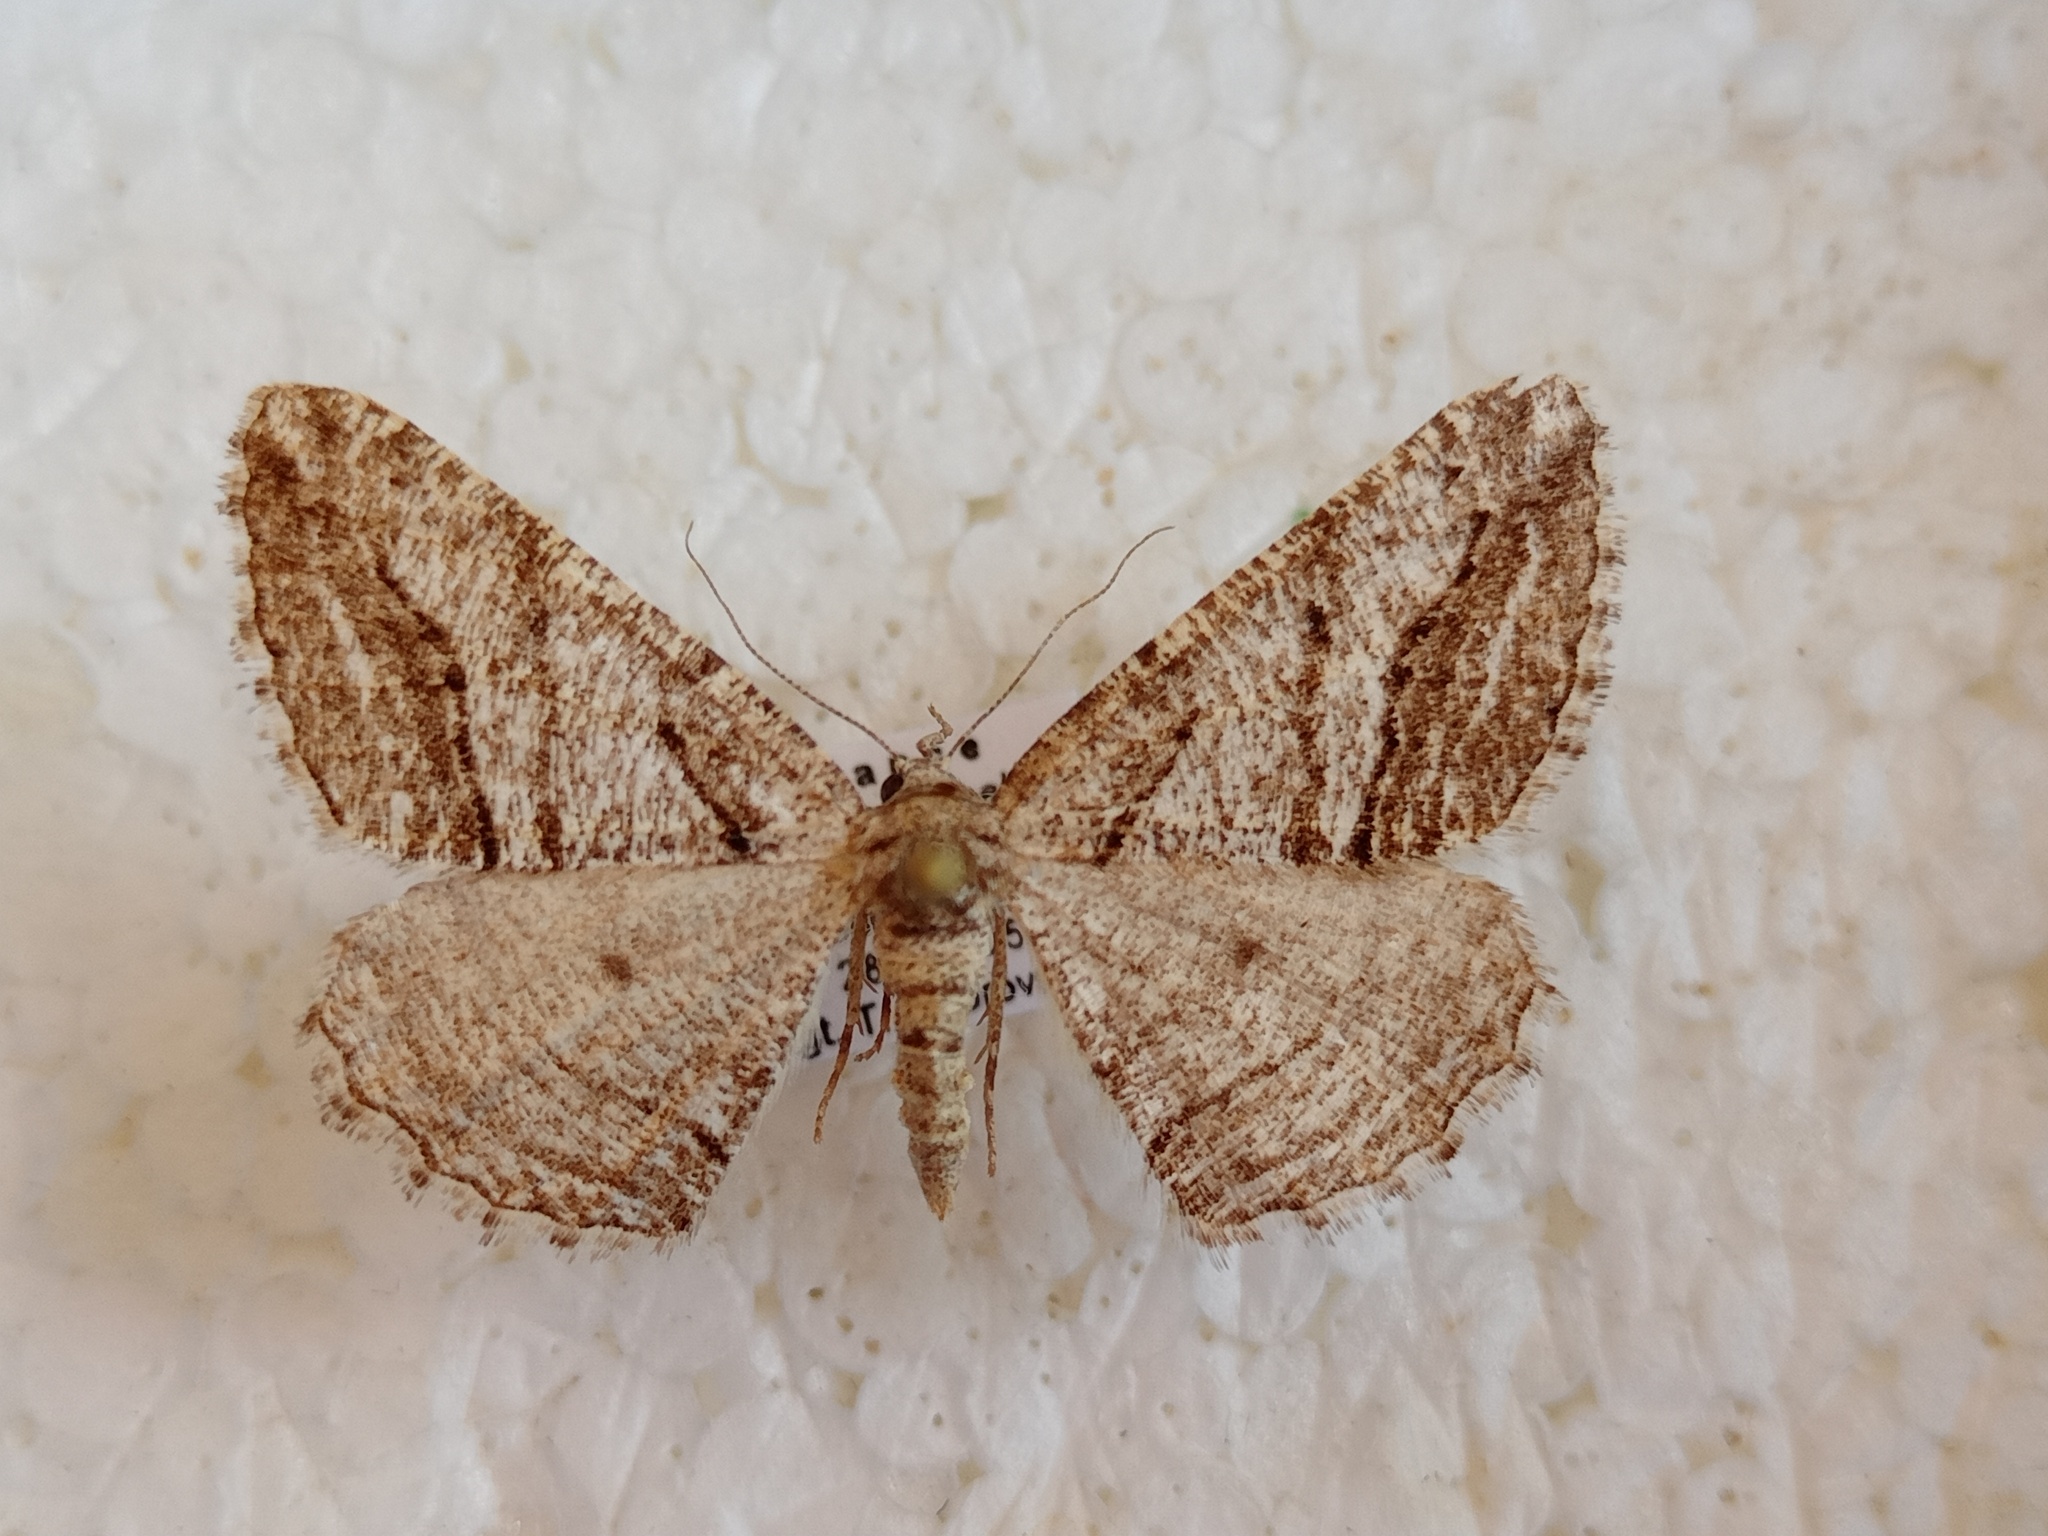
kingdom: Animalia
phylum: Arthropoda
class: Insecta
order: Lepidoptera
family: Geometridae
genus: Calamodes
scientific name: Calamodes occitanaria
